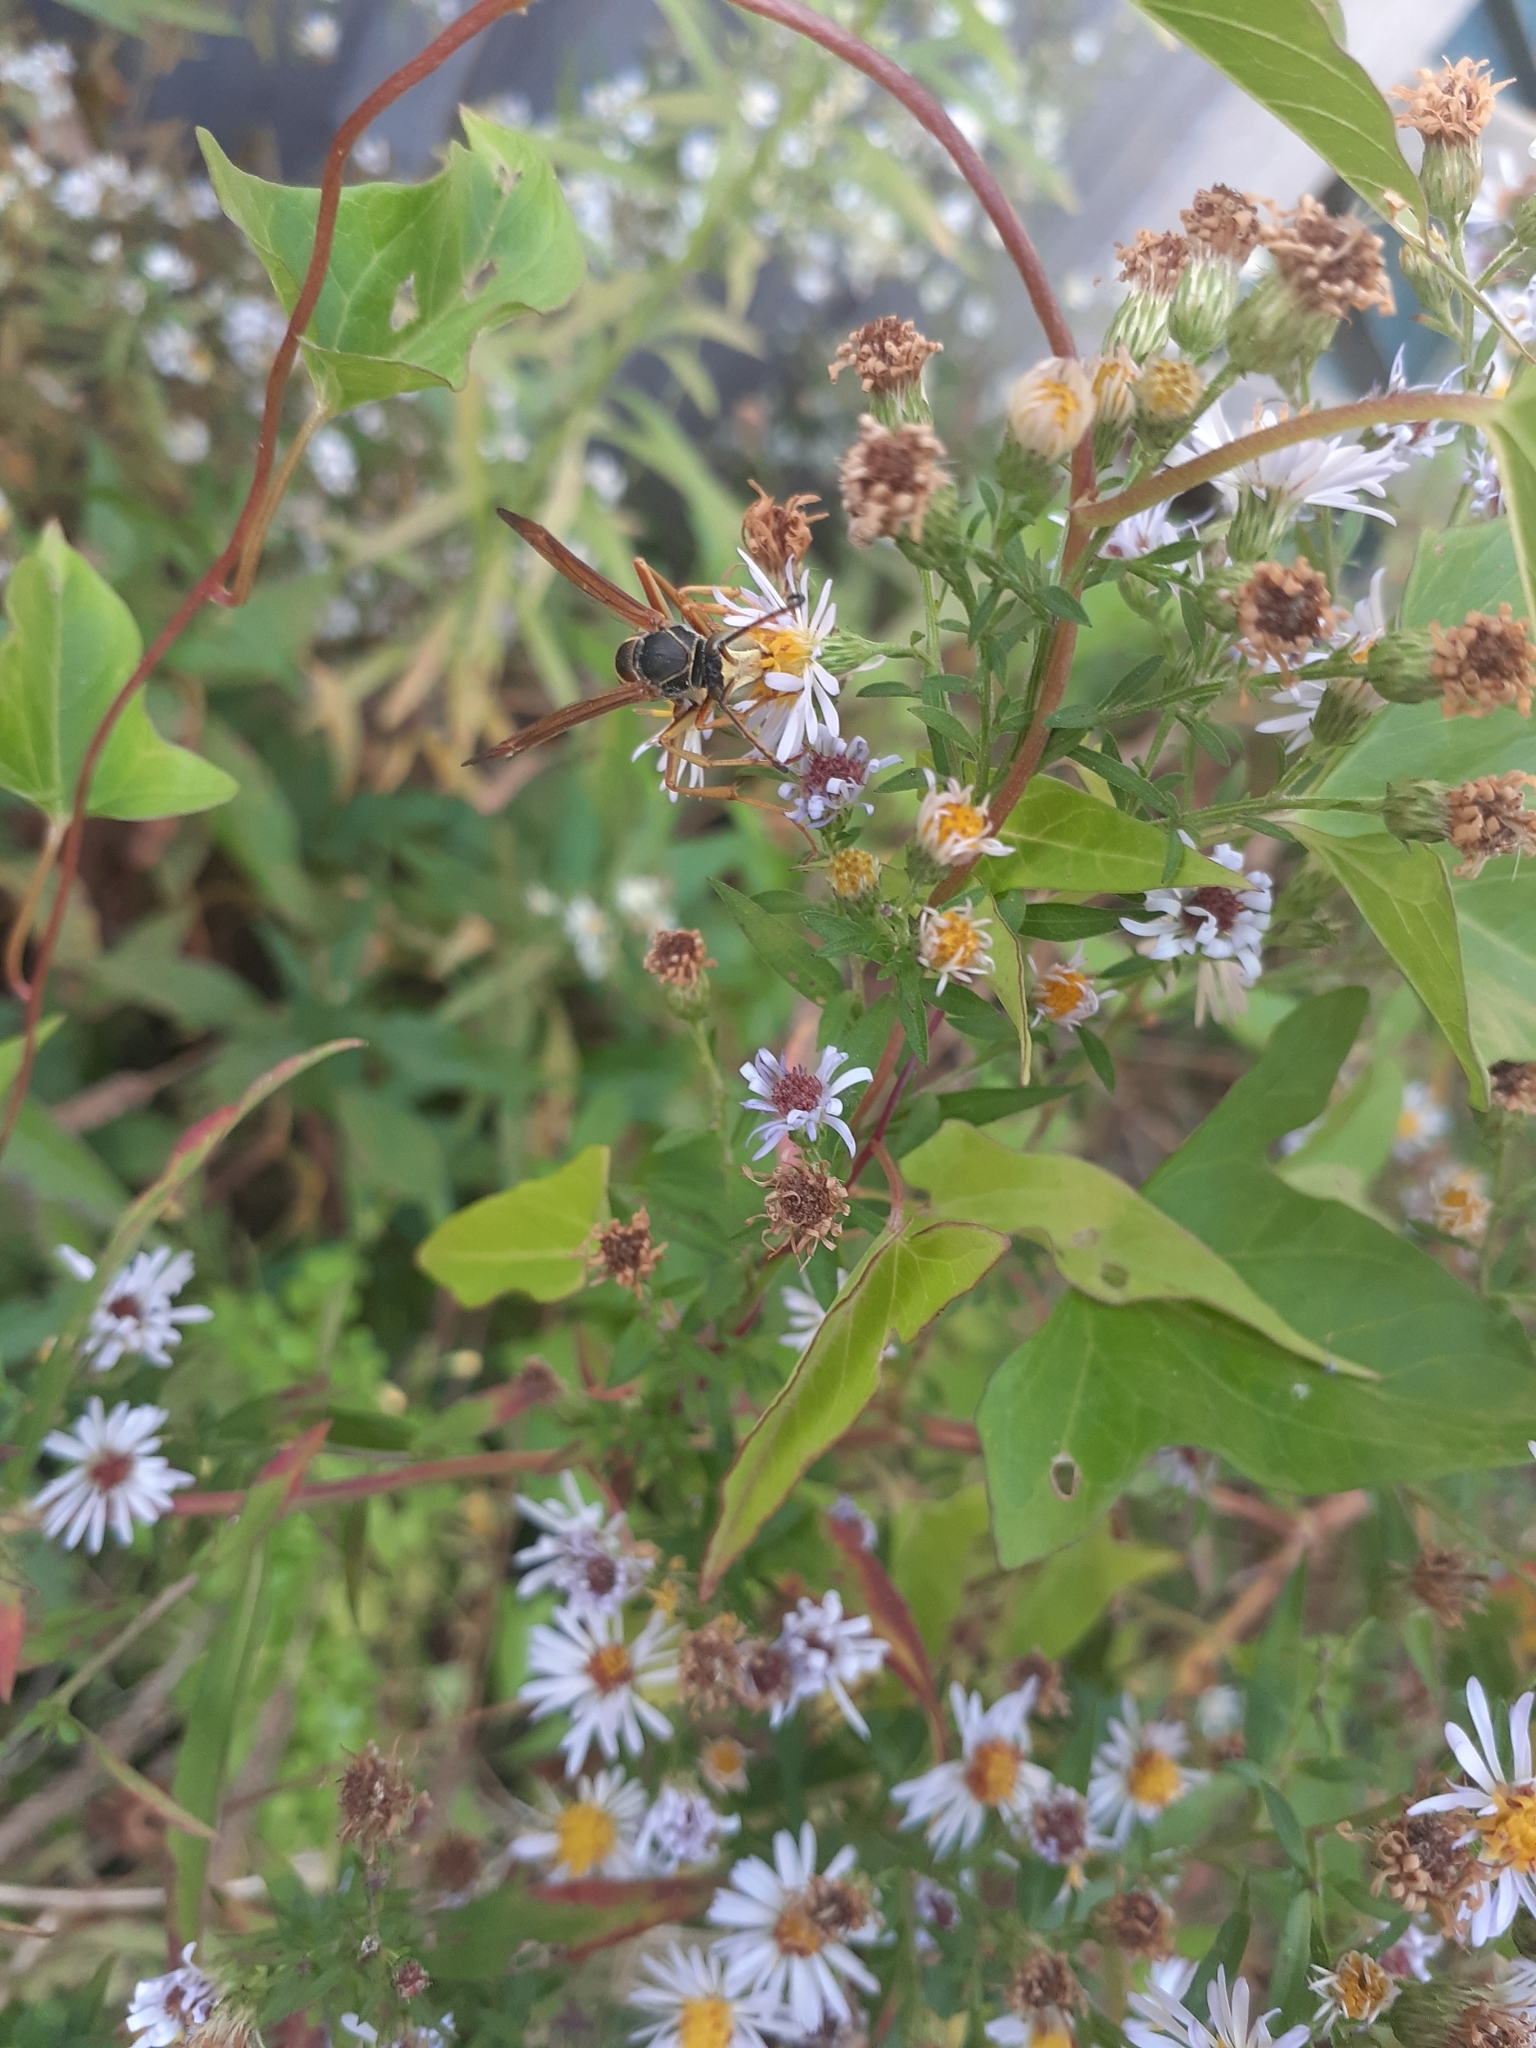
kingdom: Animalia
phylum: Arthropoda
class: Insecta
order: Hymenoptera
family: Eumenidae
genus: Polistes
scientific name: Polistes fuscatus
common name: Dark paper wasp
